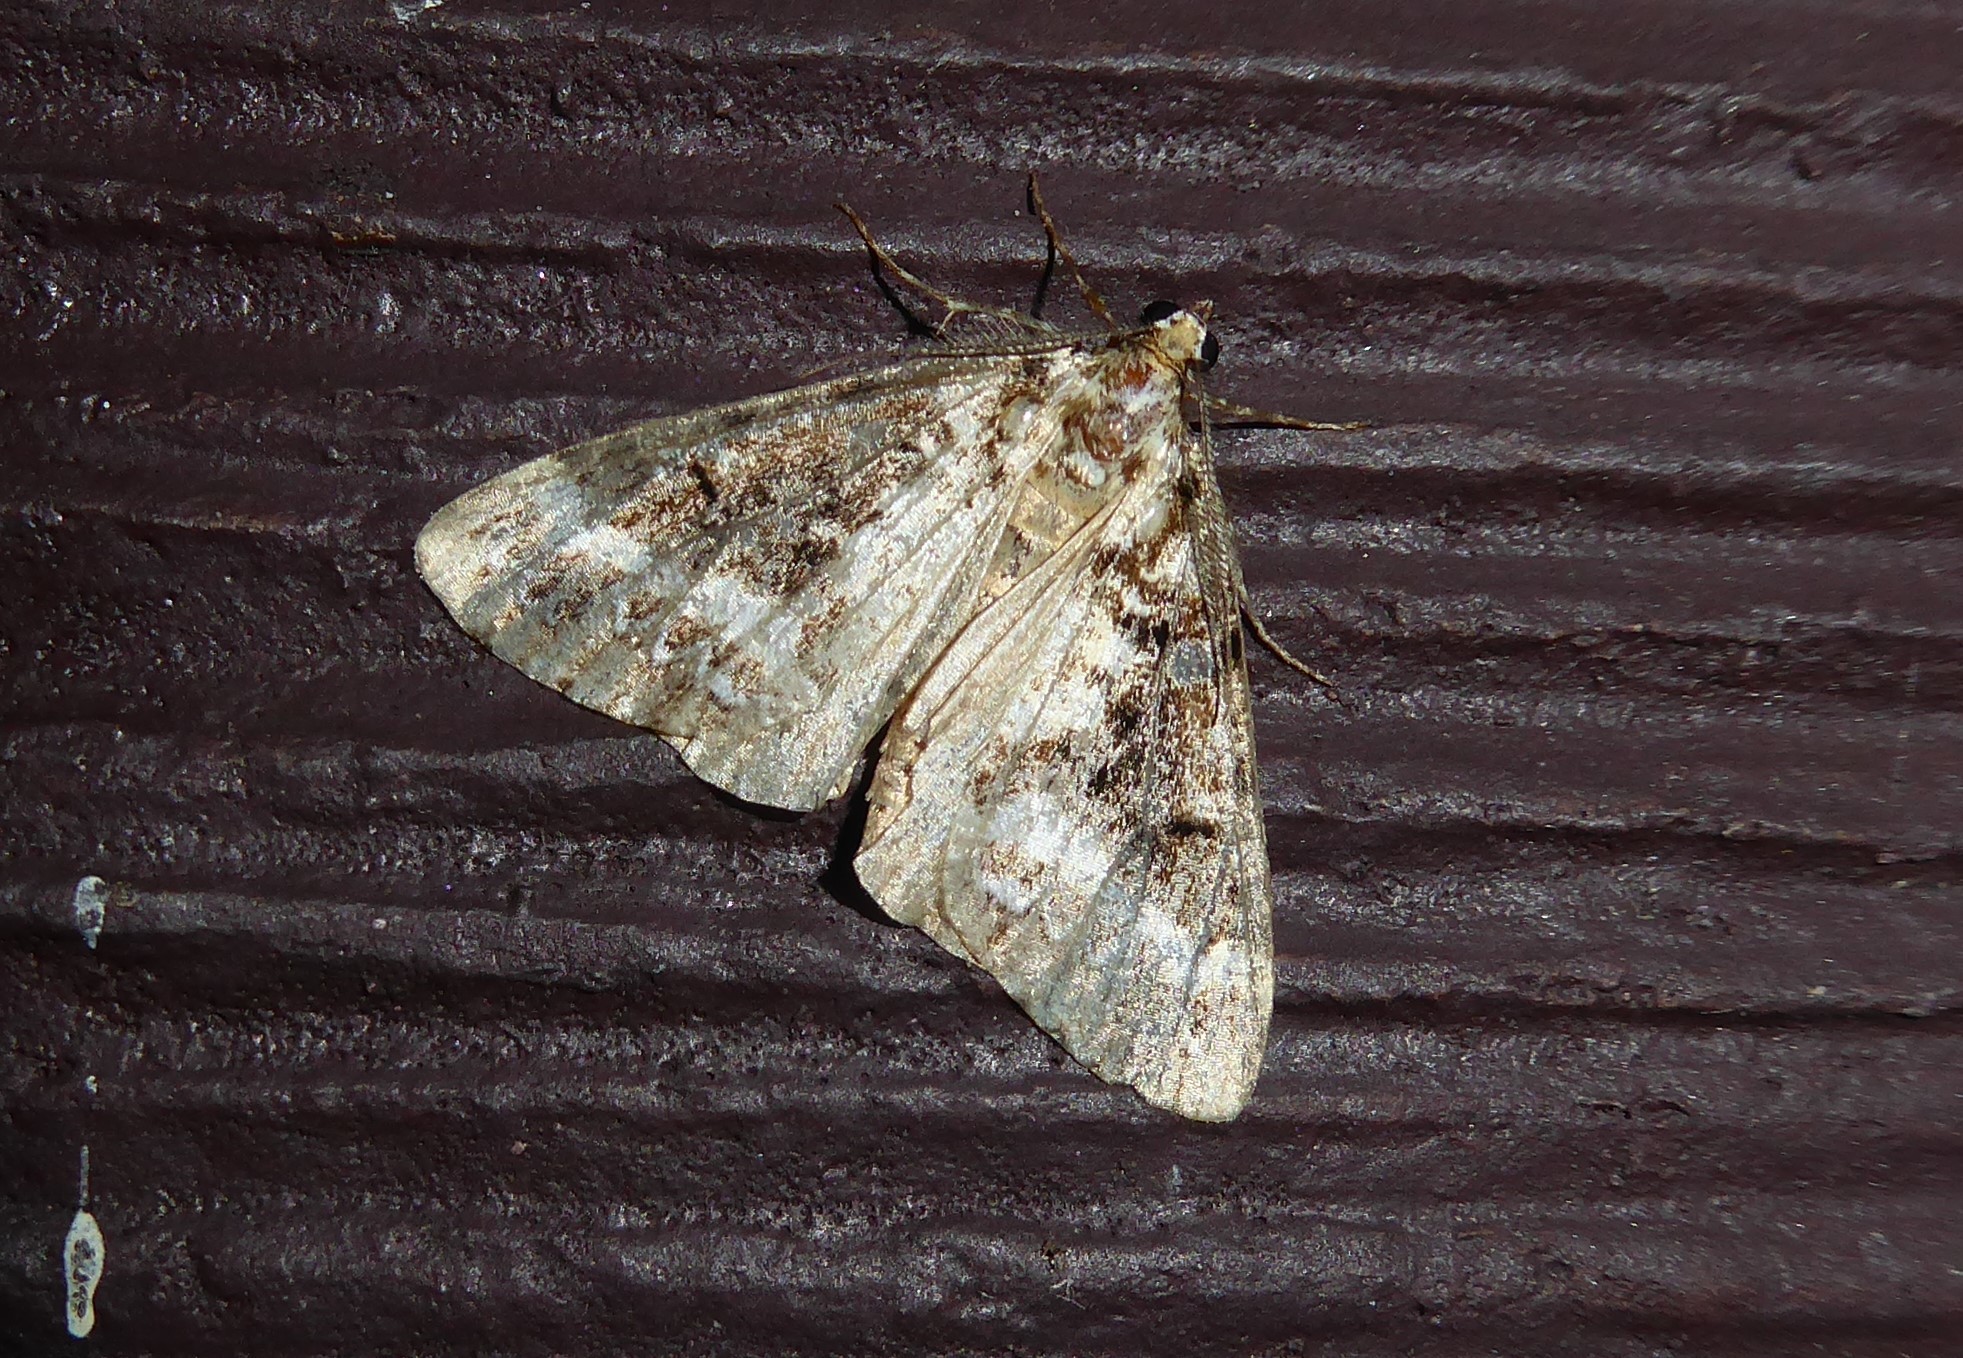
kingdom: Animalia
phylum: Arthropoda
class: Insecta
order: Lepidoptera
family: Geometridae
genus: Pseudocoremia
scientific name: Pseudocoremia leucelaea
